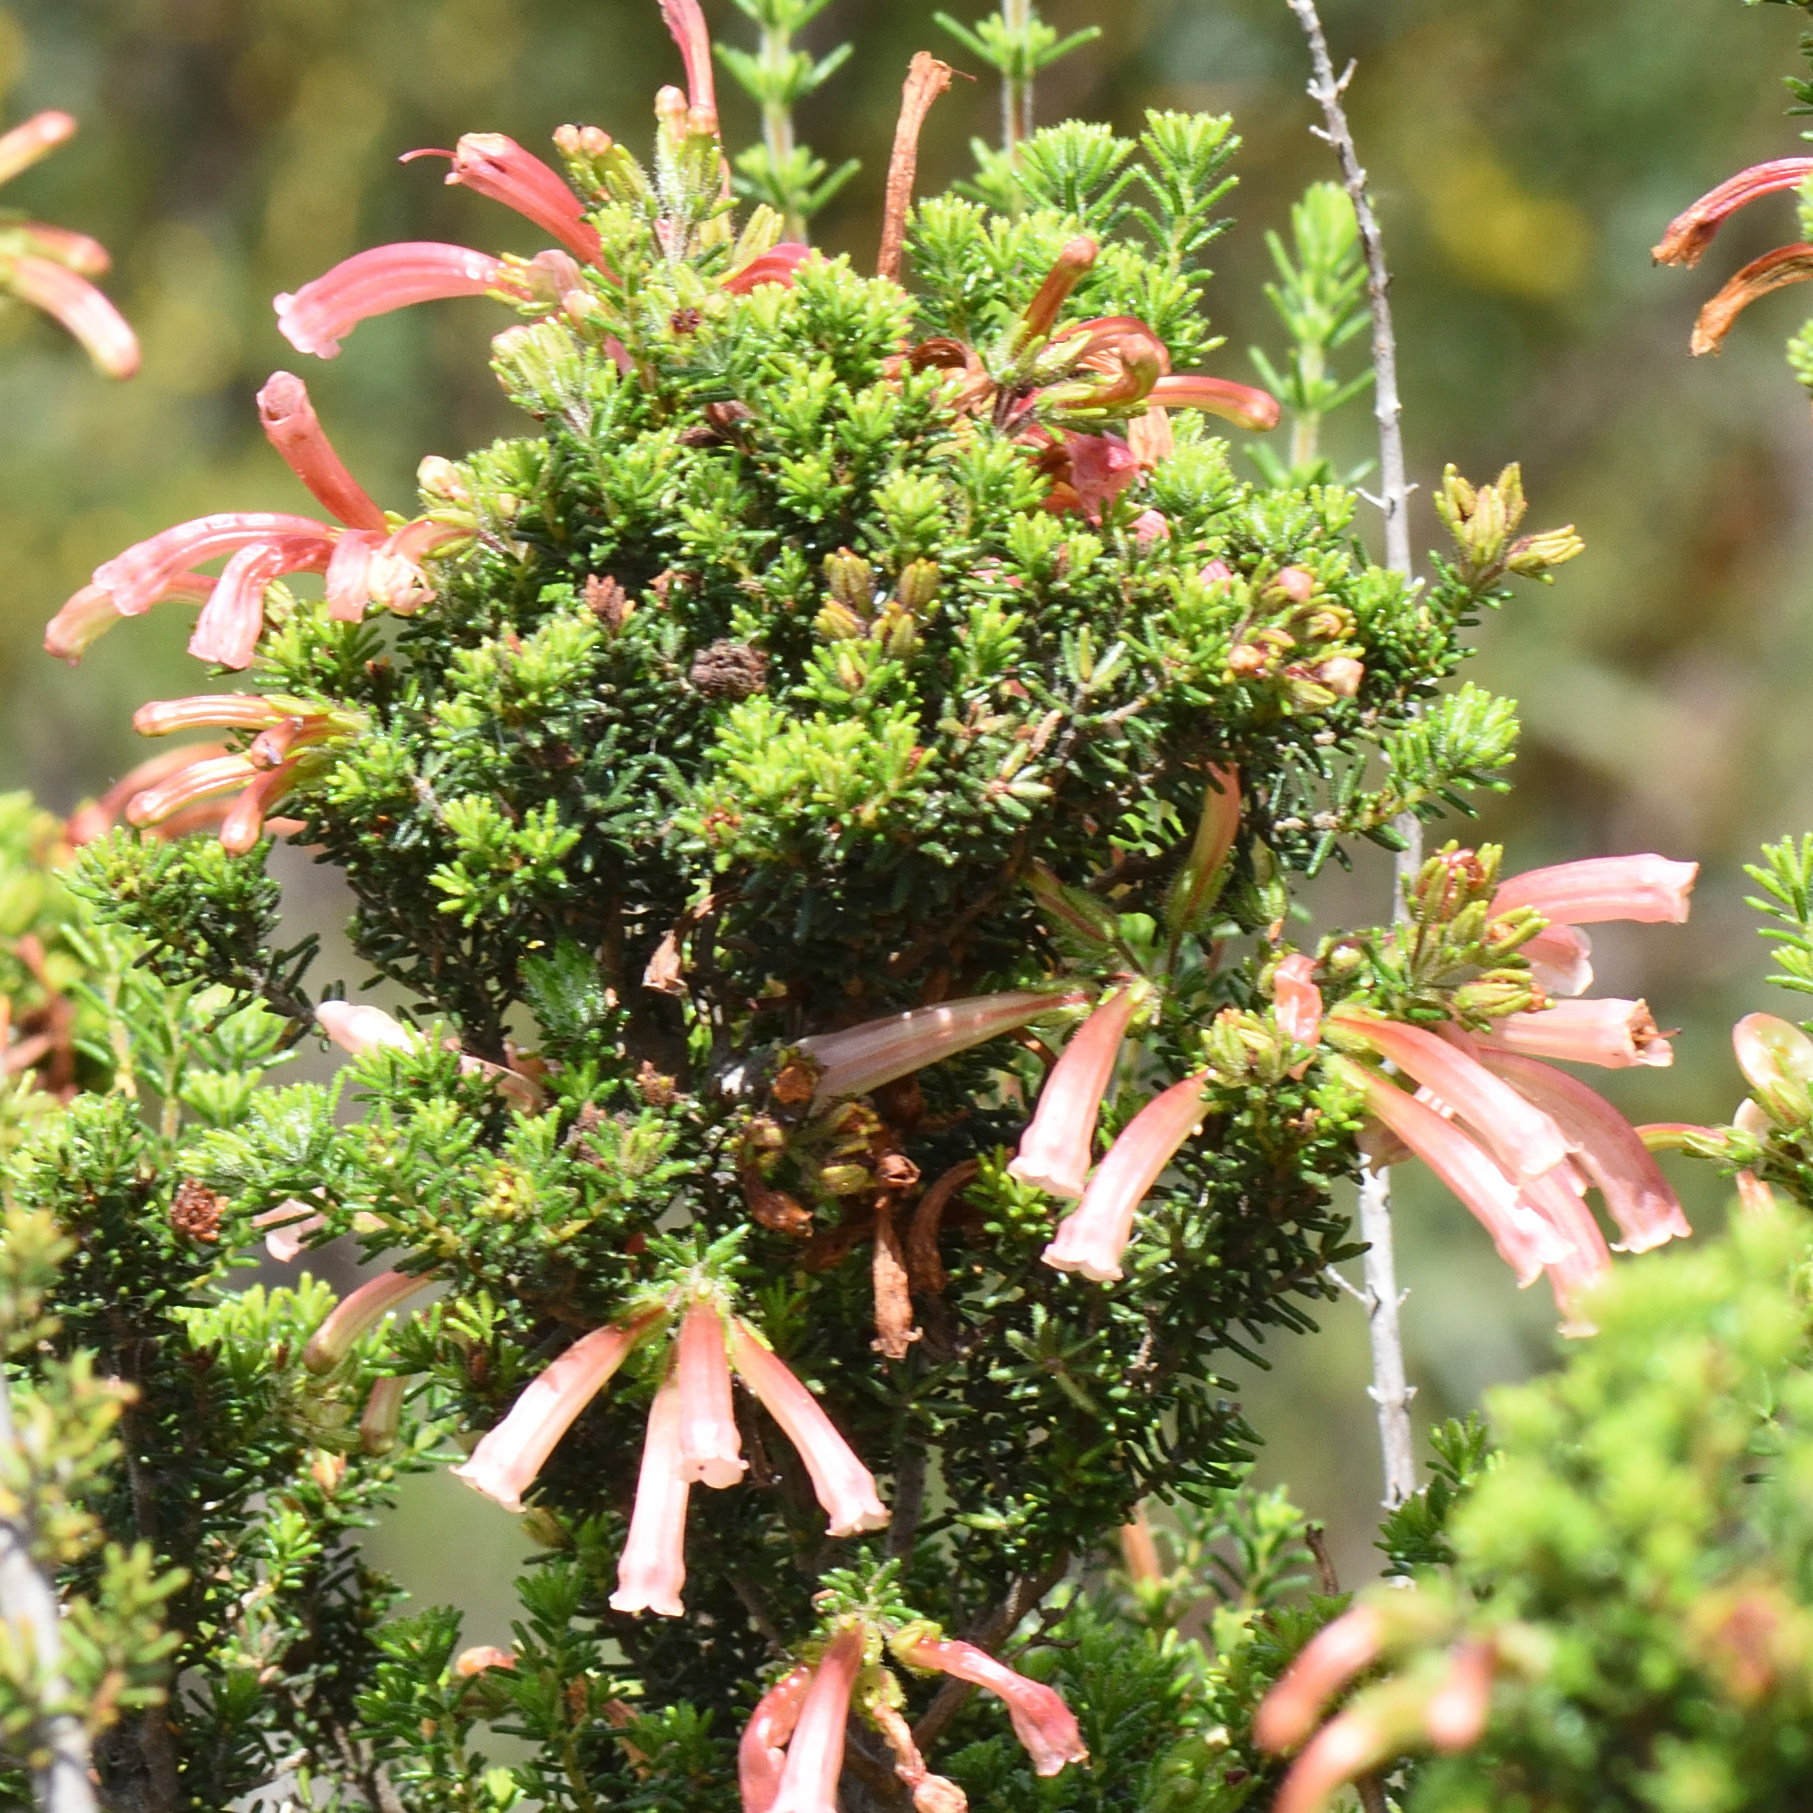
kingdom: Plantae
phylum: Tracheophyta
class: Magnoliopsida
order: Ericales
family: Ericaceae
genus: Erica
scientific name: Erica glandulosa
